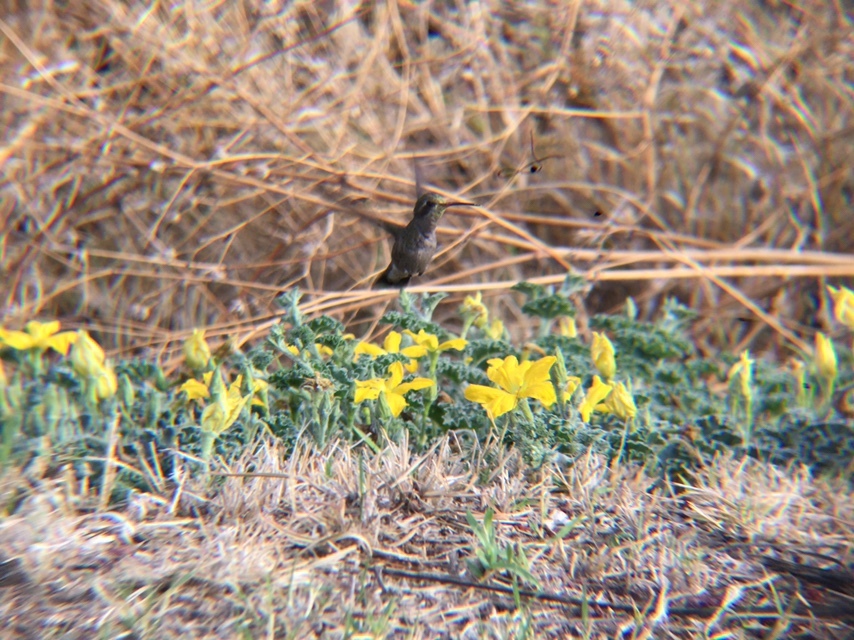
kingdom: Animalia
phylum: Chordata
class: Aves
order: Apodiformes
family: Trochilidae
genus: Cynanthus
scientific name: Cynanthus latirostris
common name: Broad-billed hummingbird
